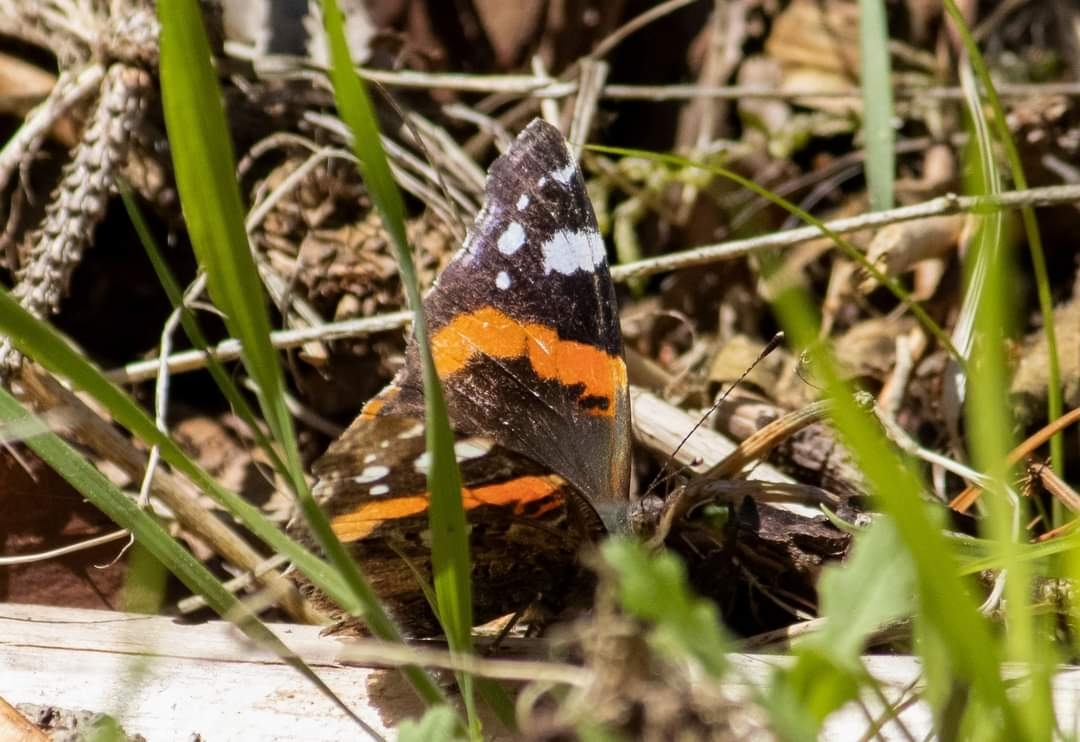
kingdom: Animalia
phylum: Arthropoda
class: Insecta
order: Lepidoptera
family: Nymphalidae
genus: Vanessa
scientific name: Vanessa atalanta
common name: Red admiral
